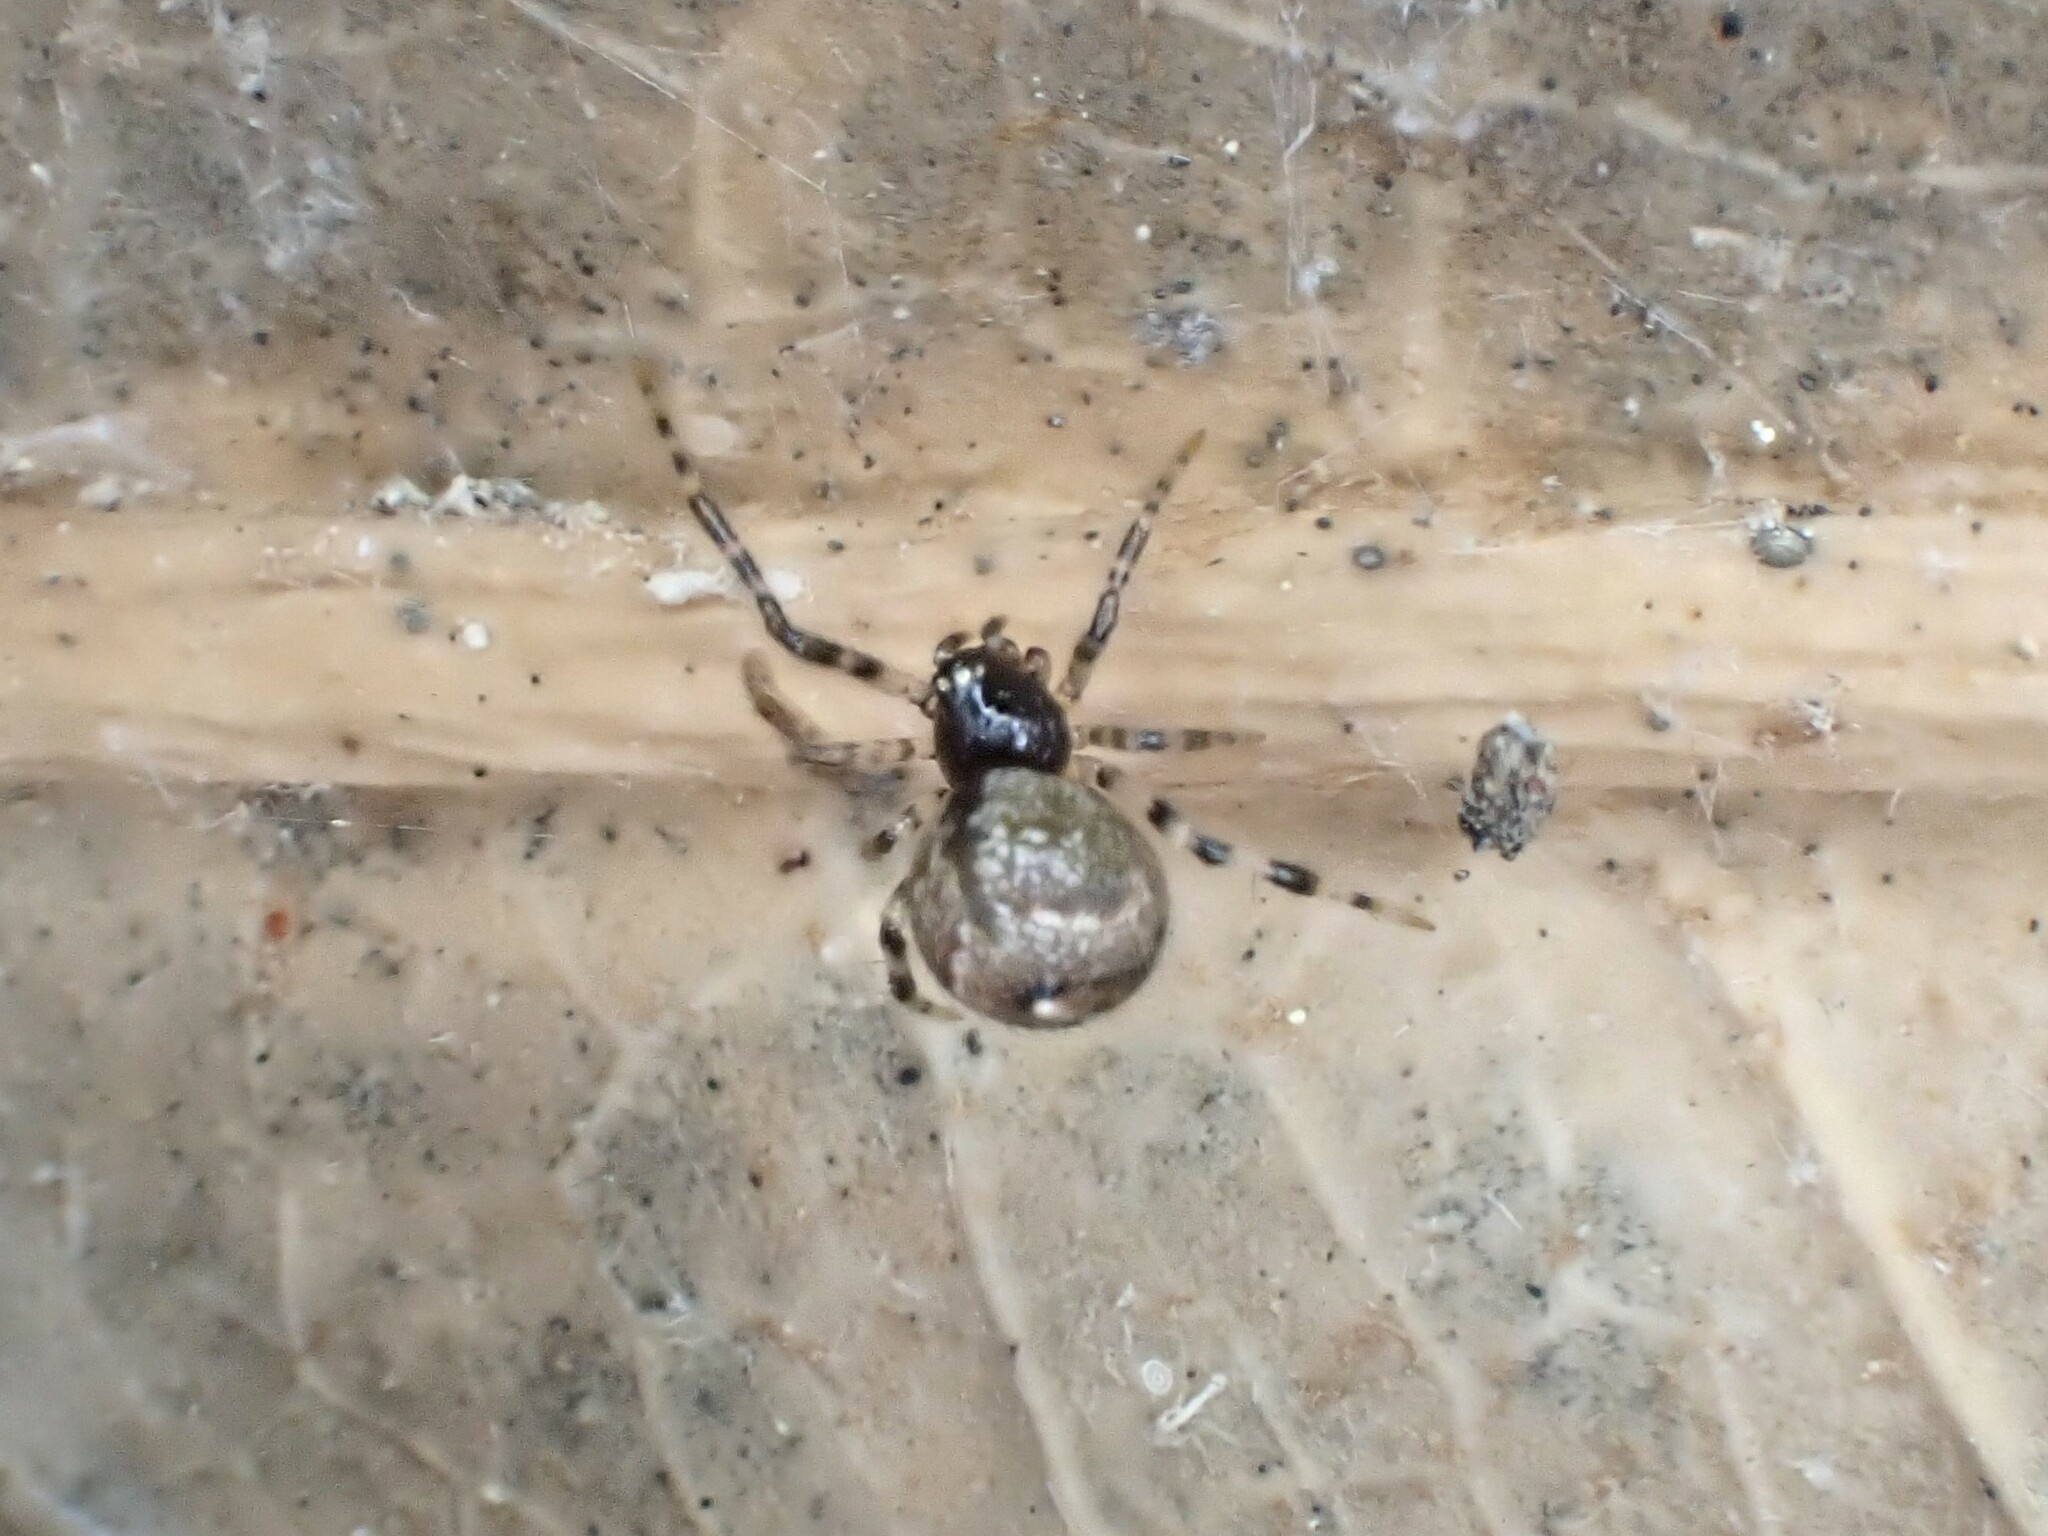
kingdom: Animalia
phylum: Arthropoda
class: Arachnida
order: Araneae
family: Theridiidae
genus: Cryptachaea
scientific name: Cryptachaea blattea
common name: Theridiid spider
